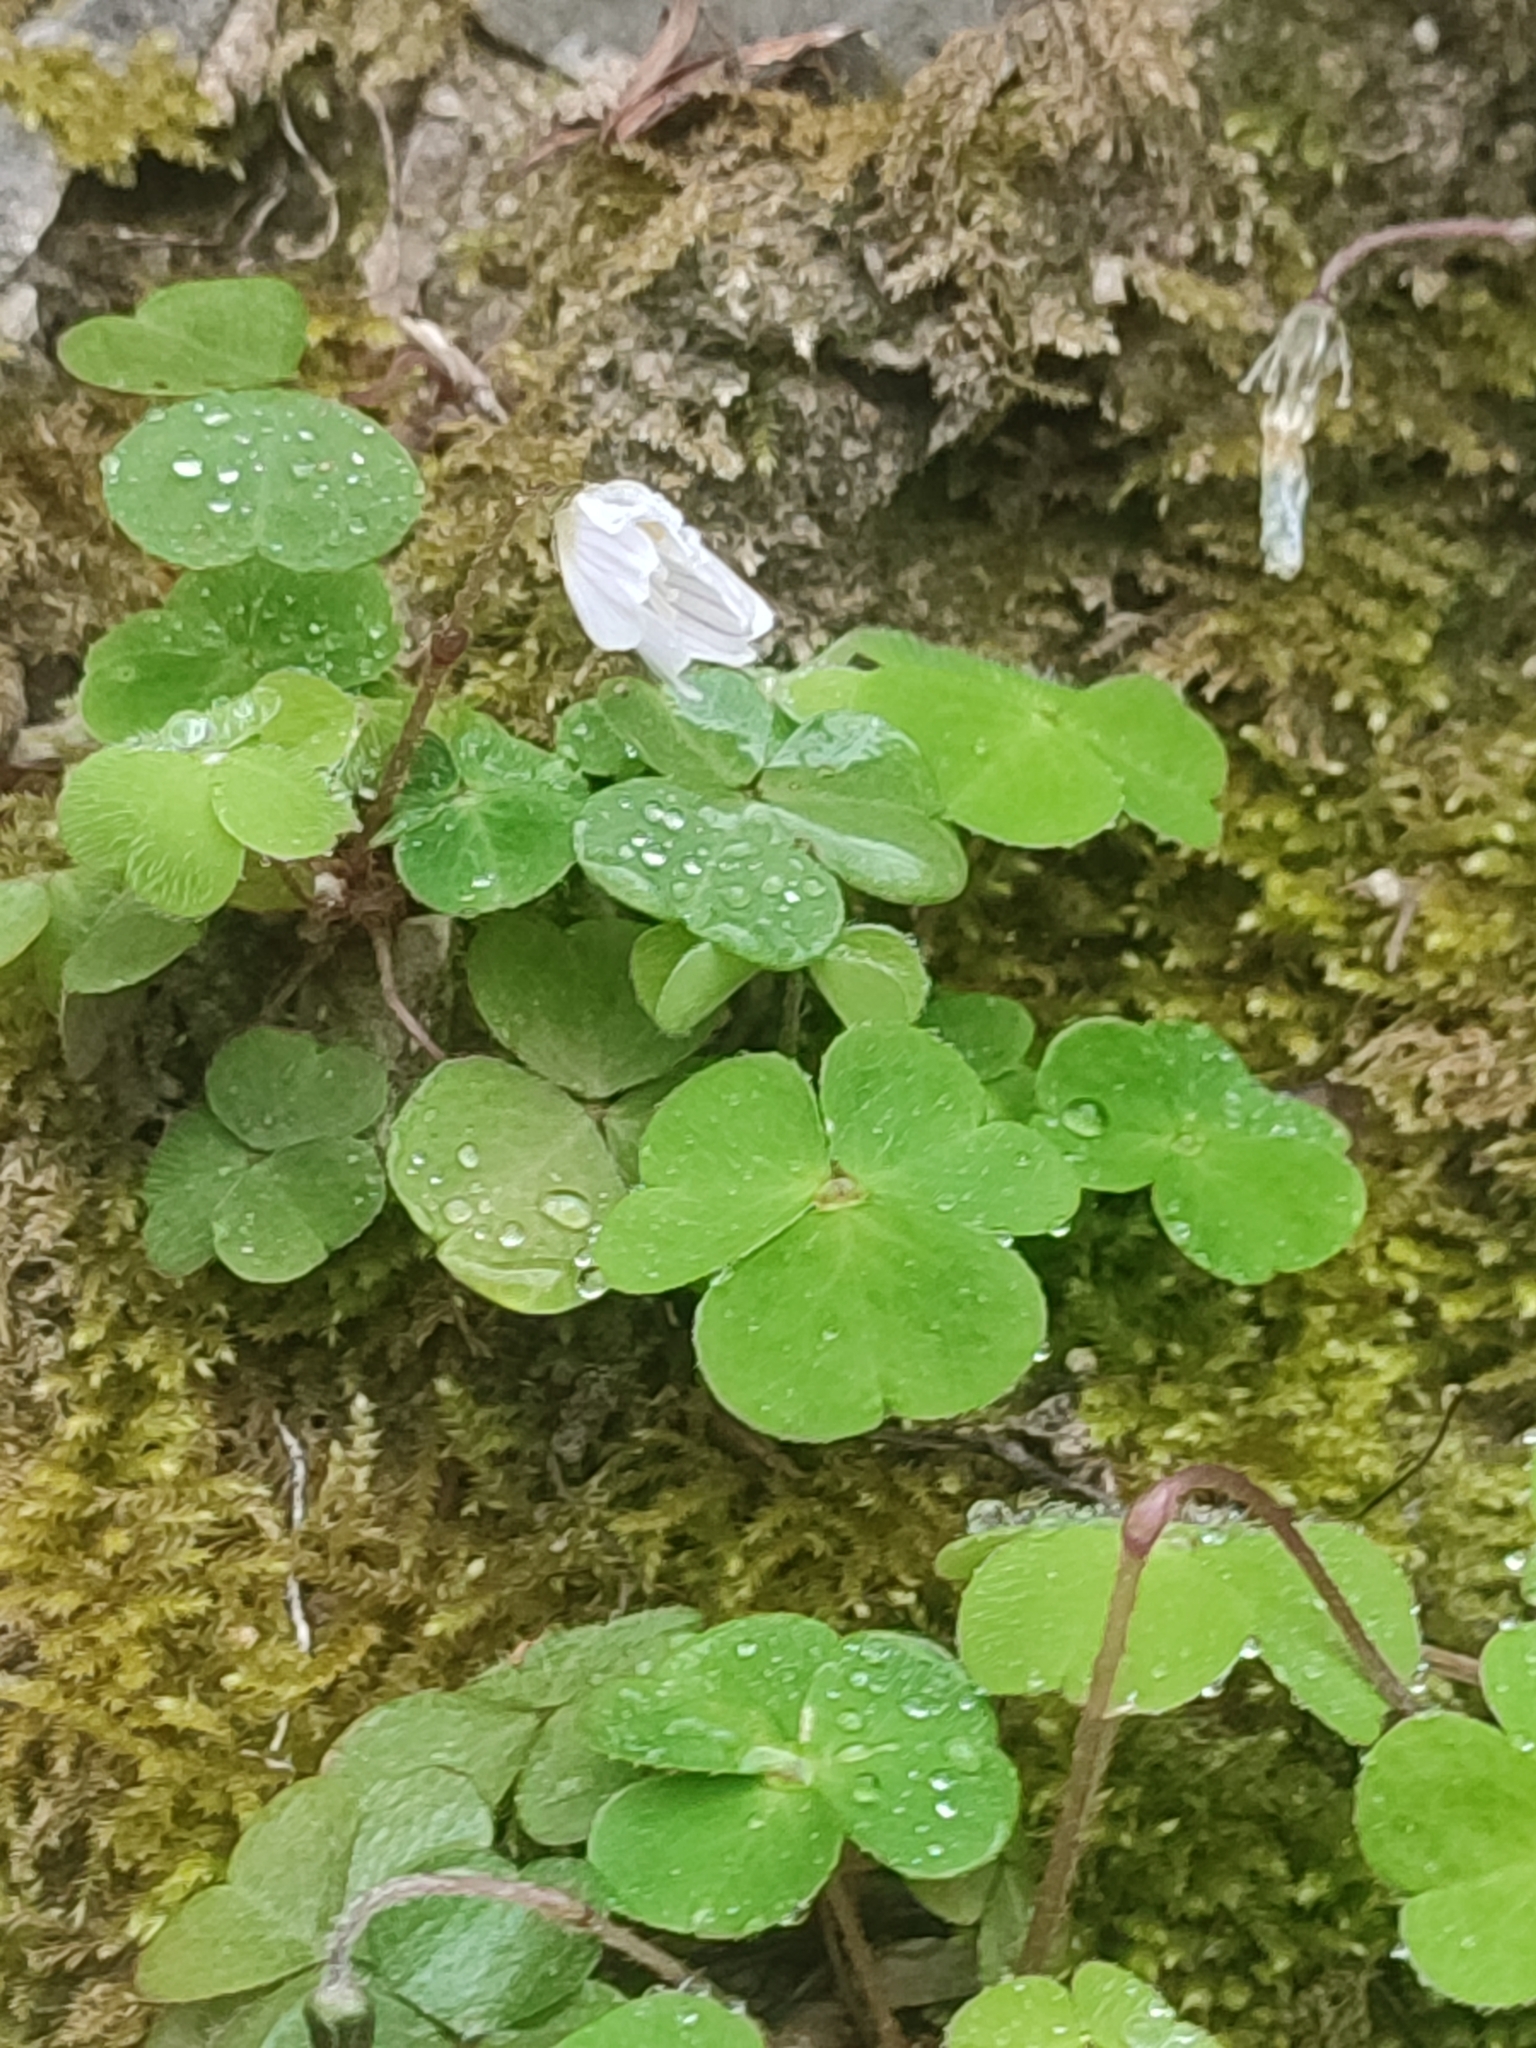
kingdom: Plantae
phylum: Tracheophyta
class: Magnoliopsida
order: Oxalidales
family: Oxalidaceae
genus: Oxalis
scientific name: Oxalis acetosella
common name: Wood-sorrel
